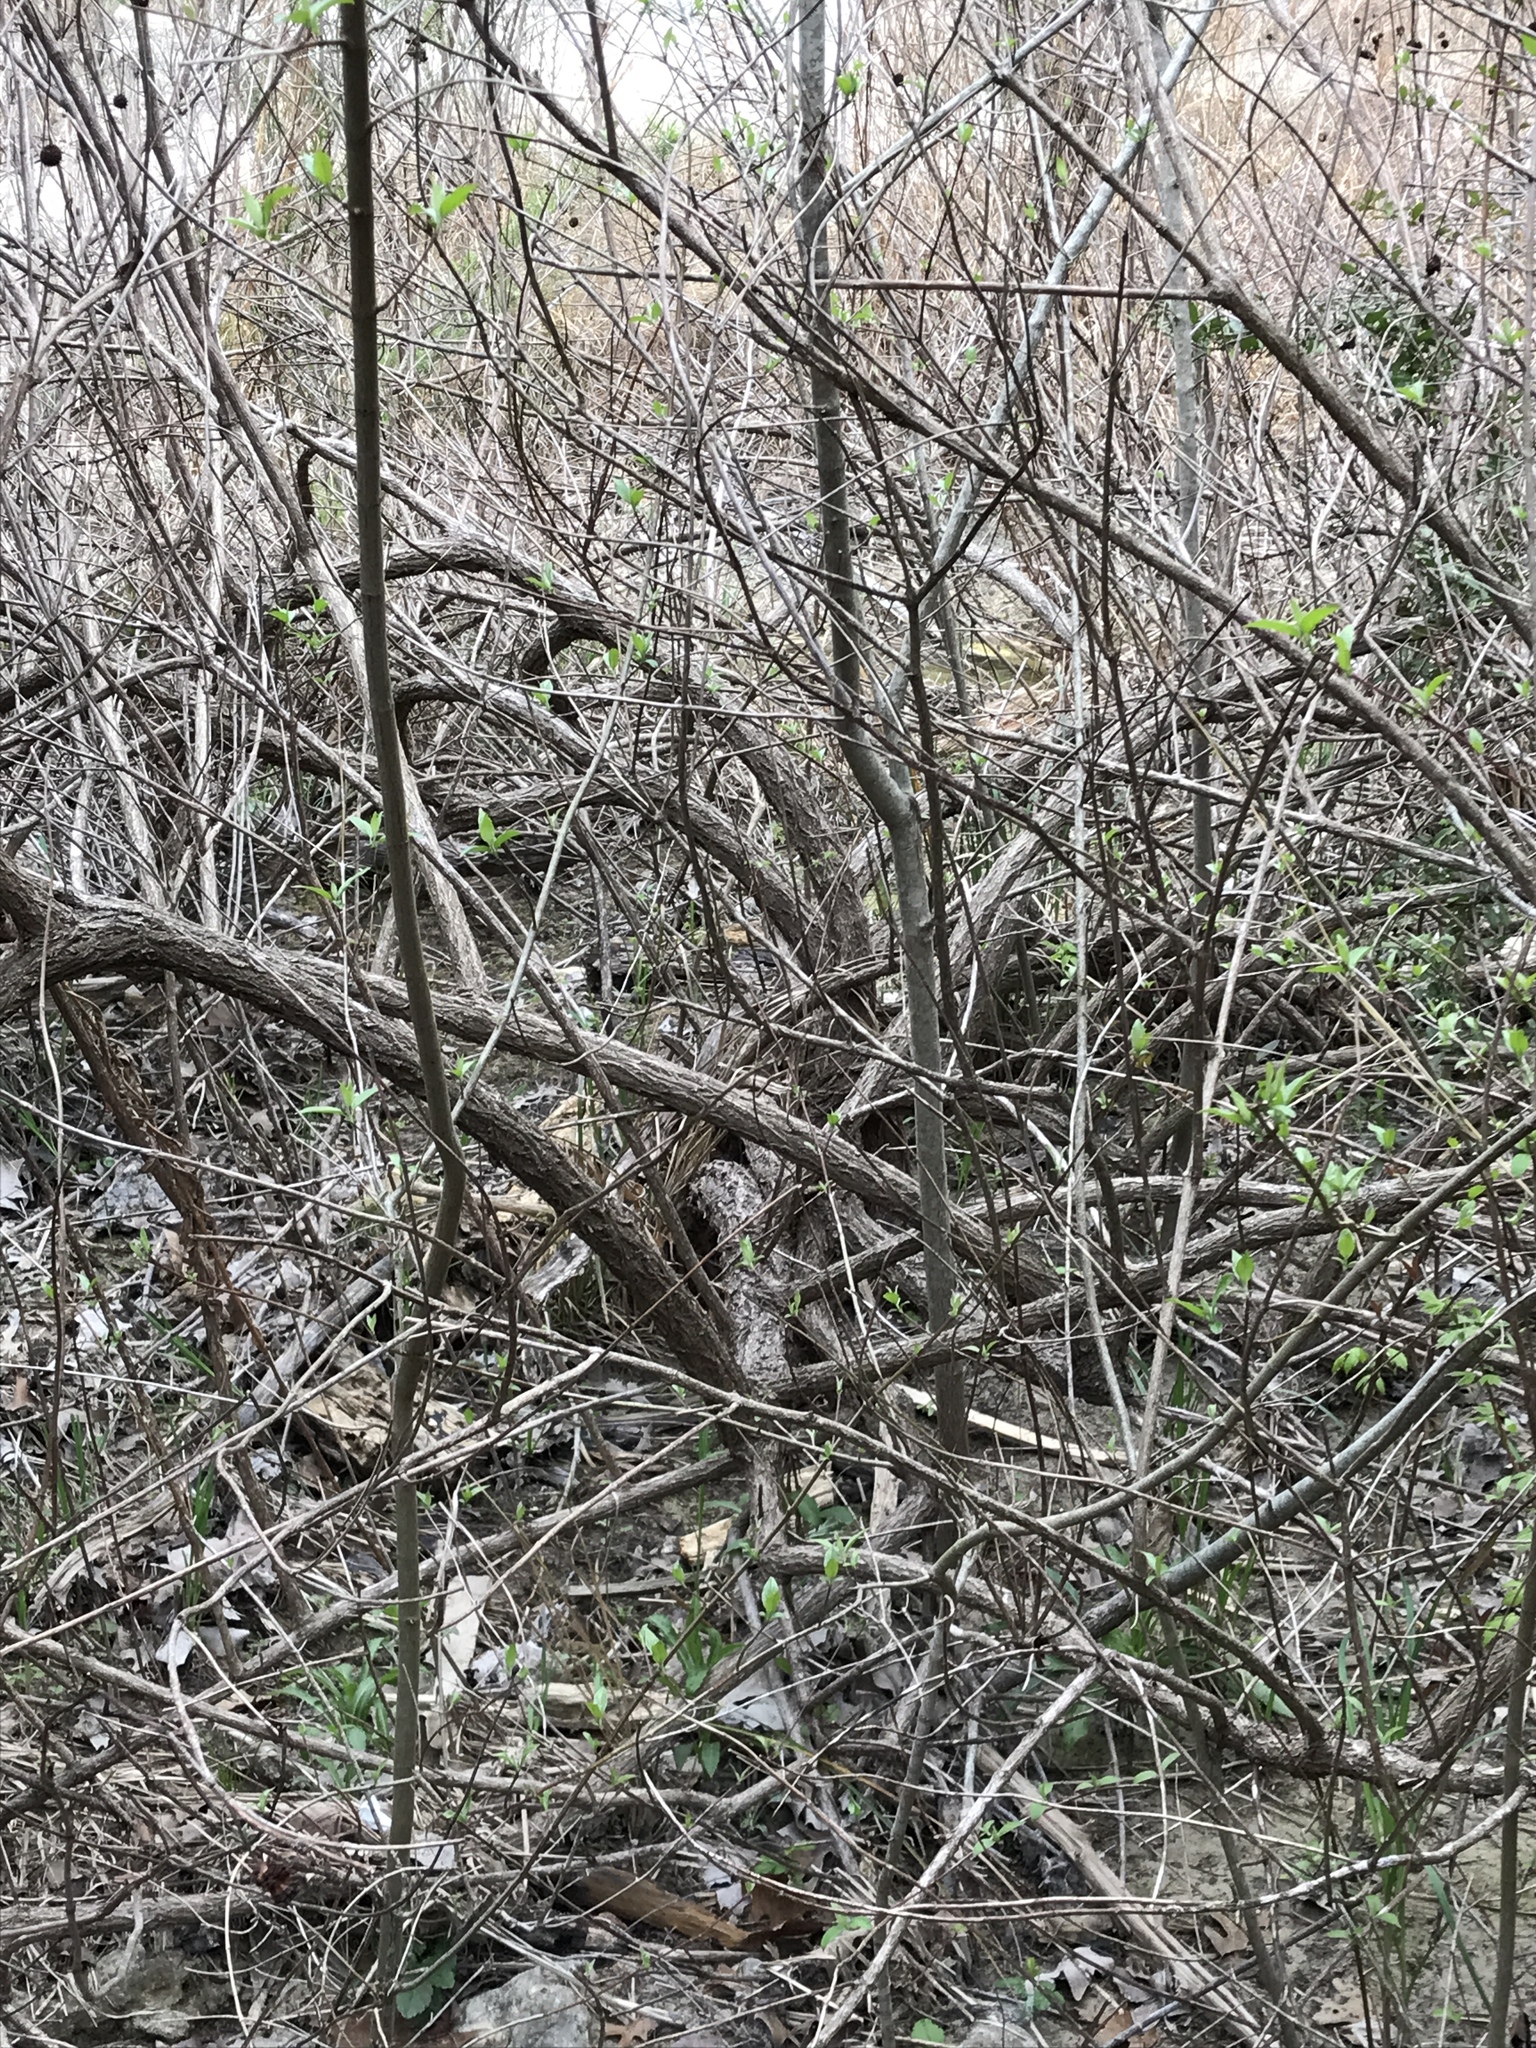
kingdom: Plantae
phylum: Tracheophyta
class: Magnoliopsida
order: Gentianales
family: Rubiaceae
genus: Cephalanthus
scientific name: Cephalanthus occidentalis
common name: Button-willow
